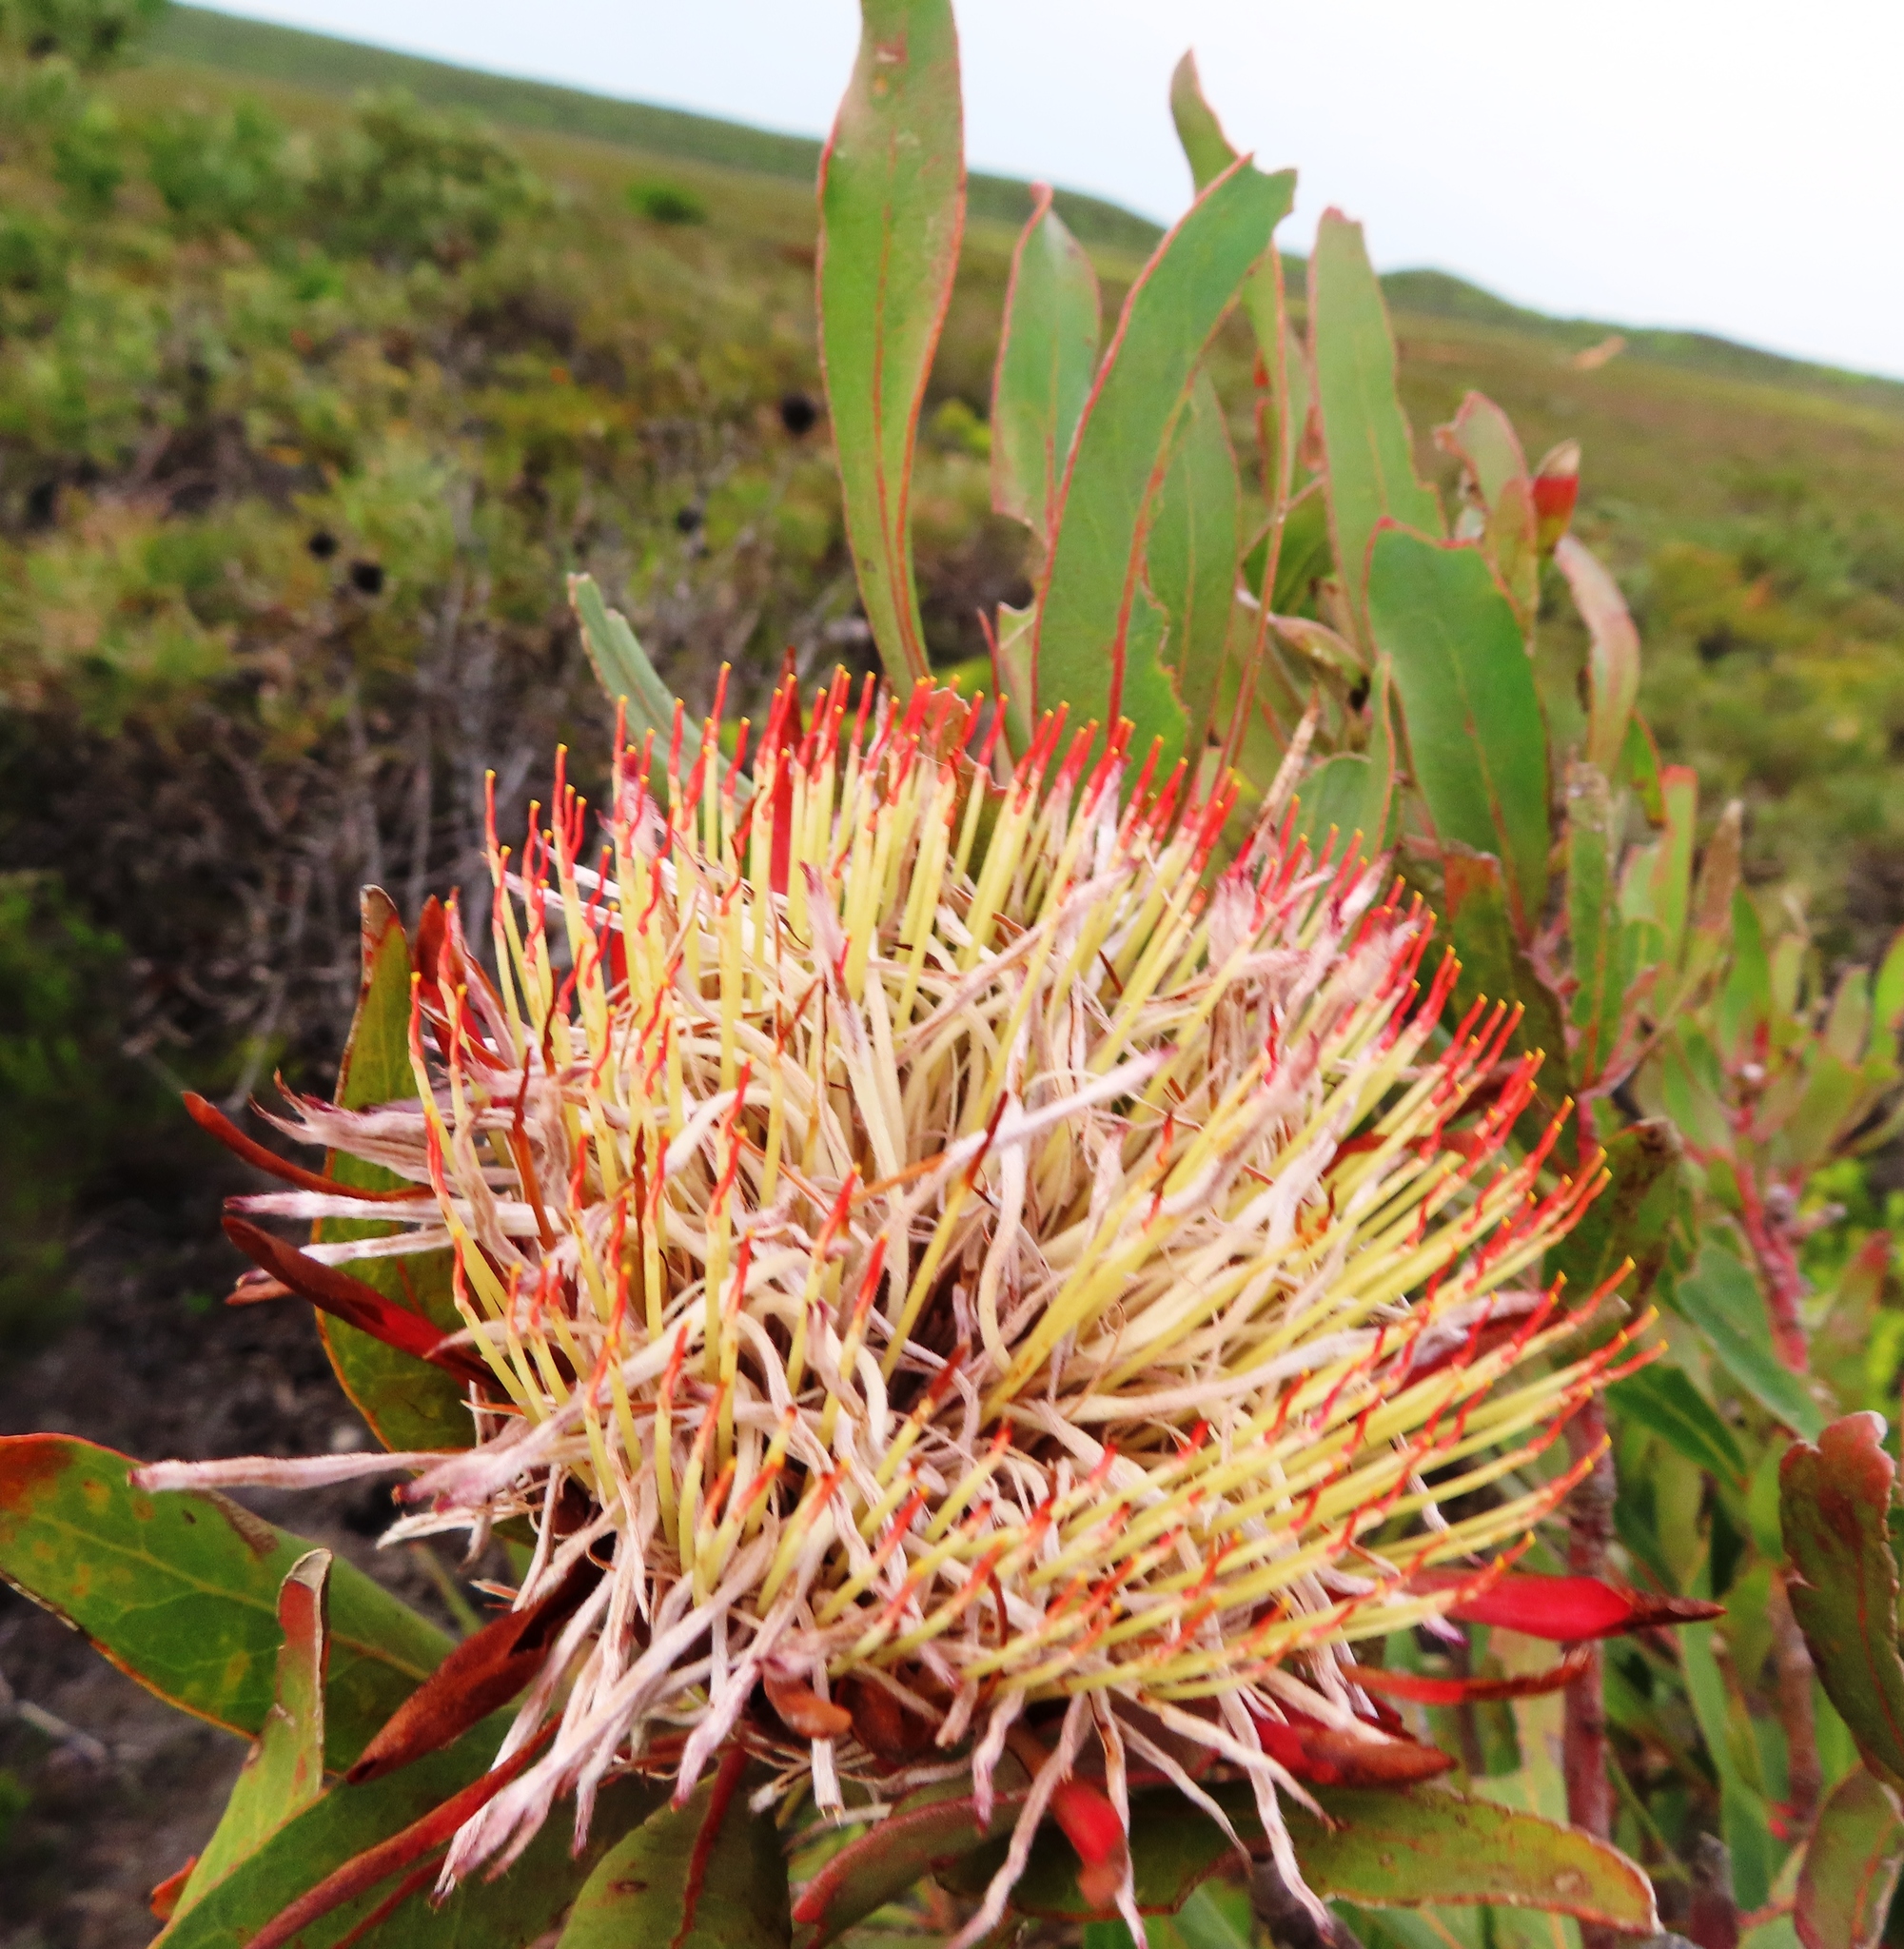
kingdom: Plantae
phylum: Tracheophyta
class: Magnoliopsida
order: Proteales
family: Proteaceae
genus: Protea
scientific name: Protea susannae
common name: Foetid-leaf sugarbush
